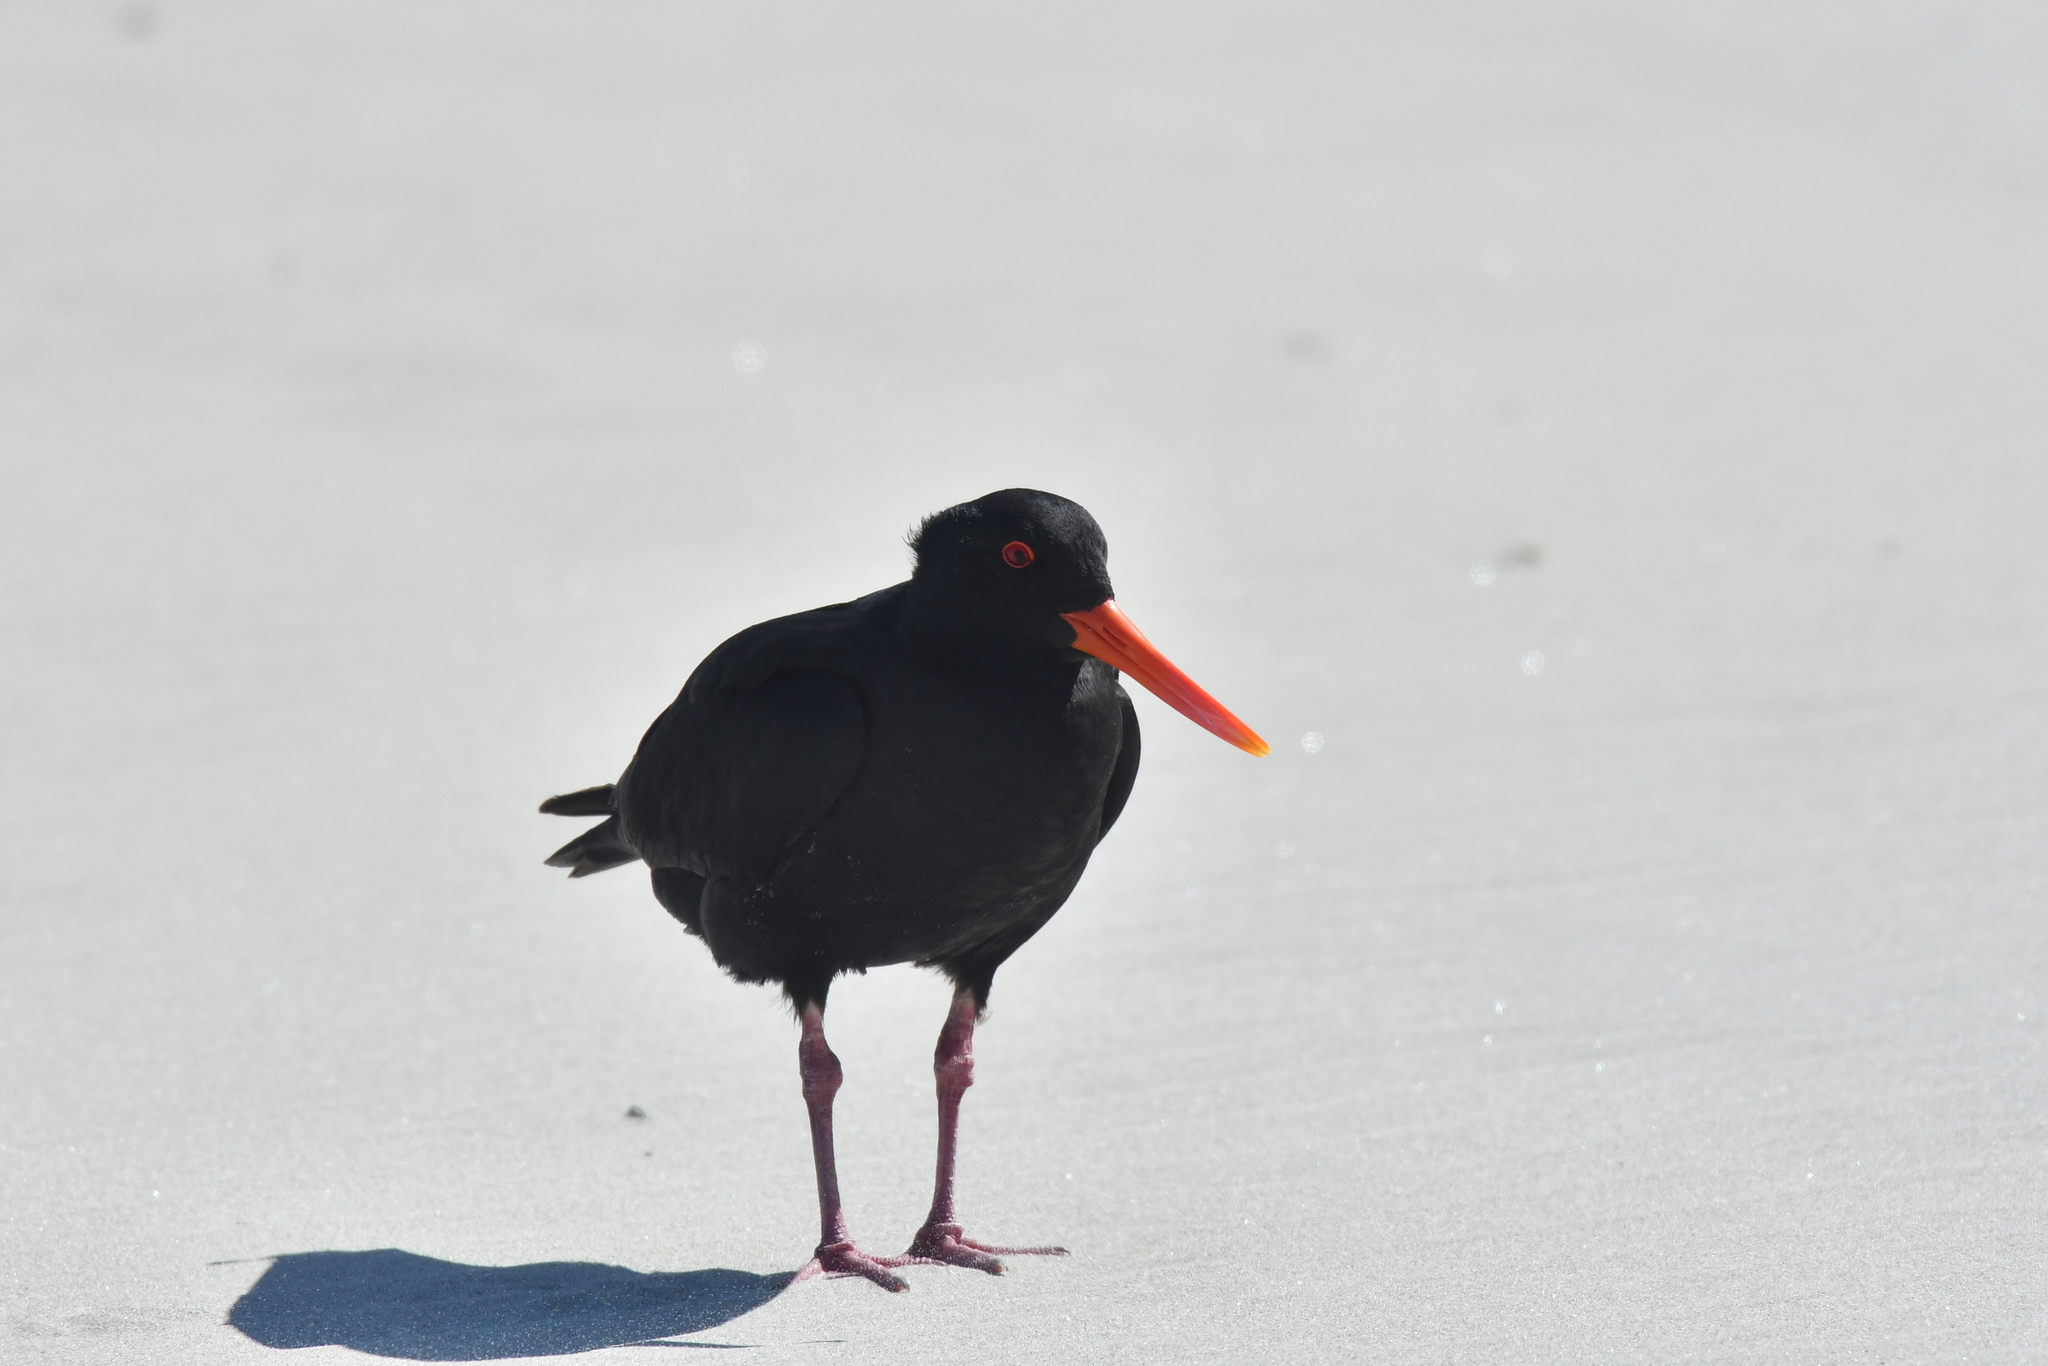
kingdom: Animalia
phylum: Chordata
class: Aves
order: Charadriiformes
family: Haematopodidae
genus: Haematopus
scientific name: Haematopus unicolor
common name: Variable oystercatcher
